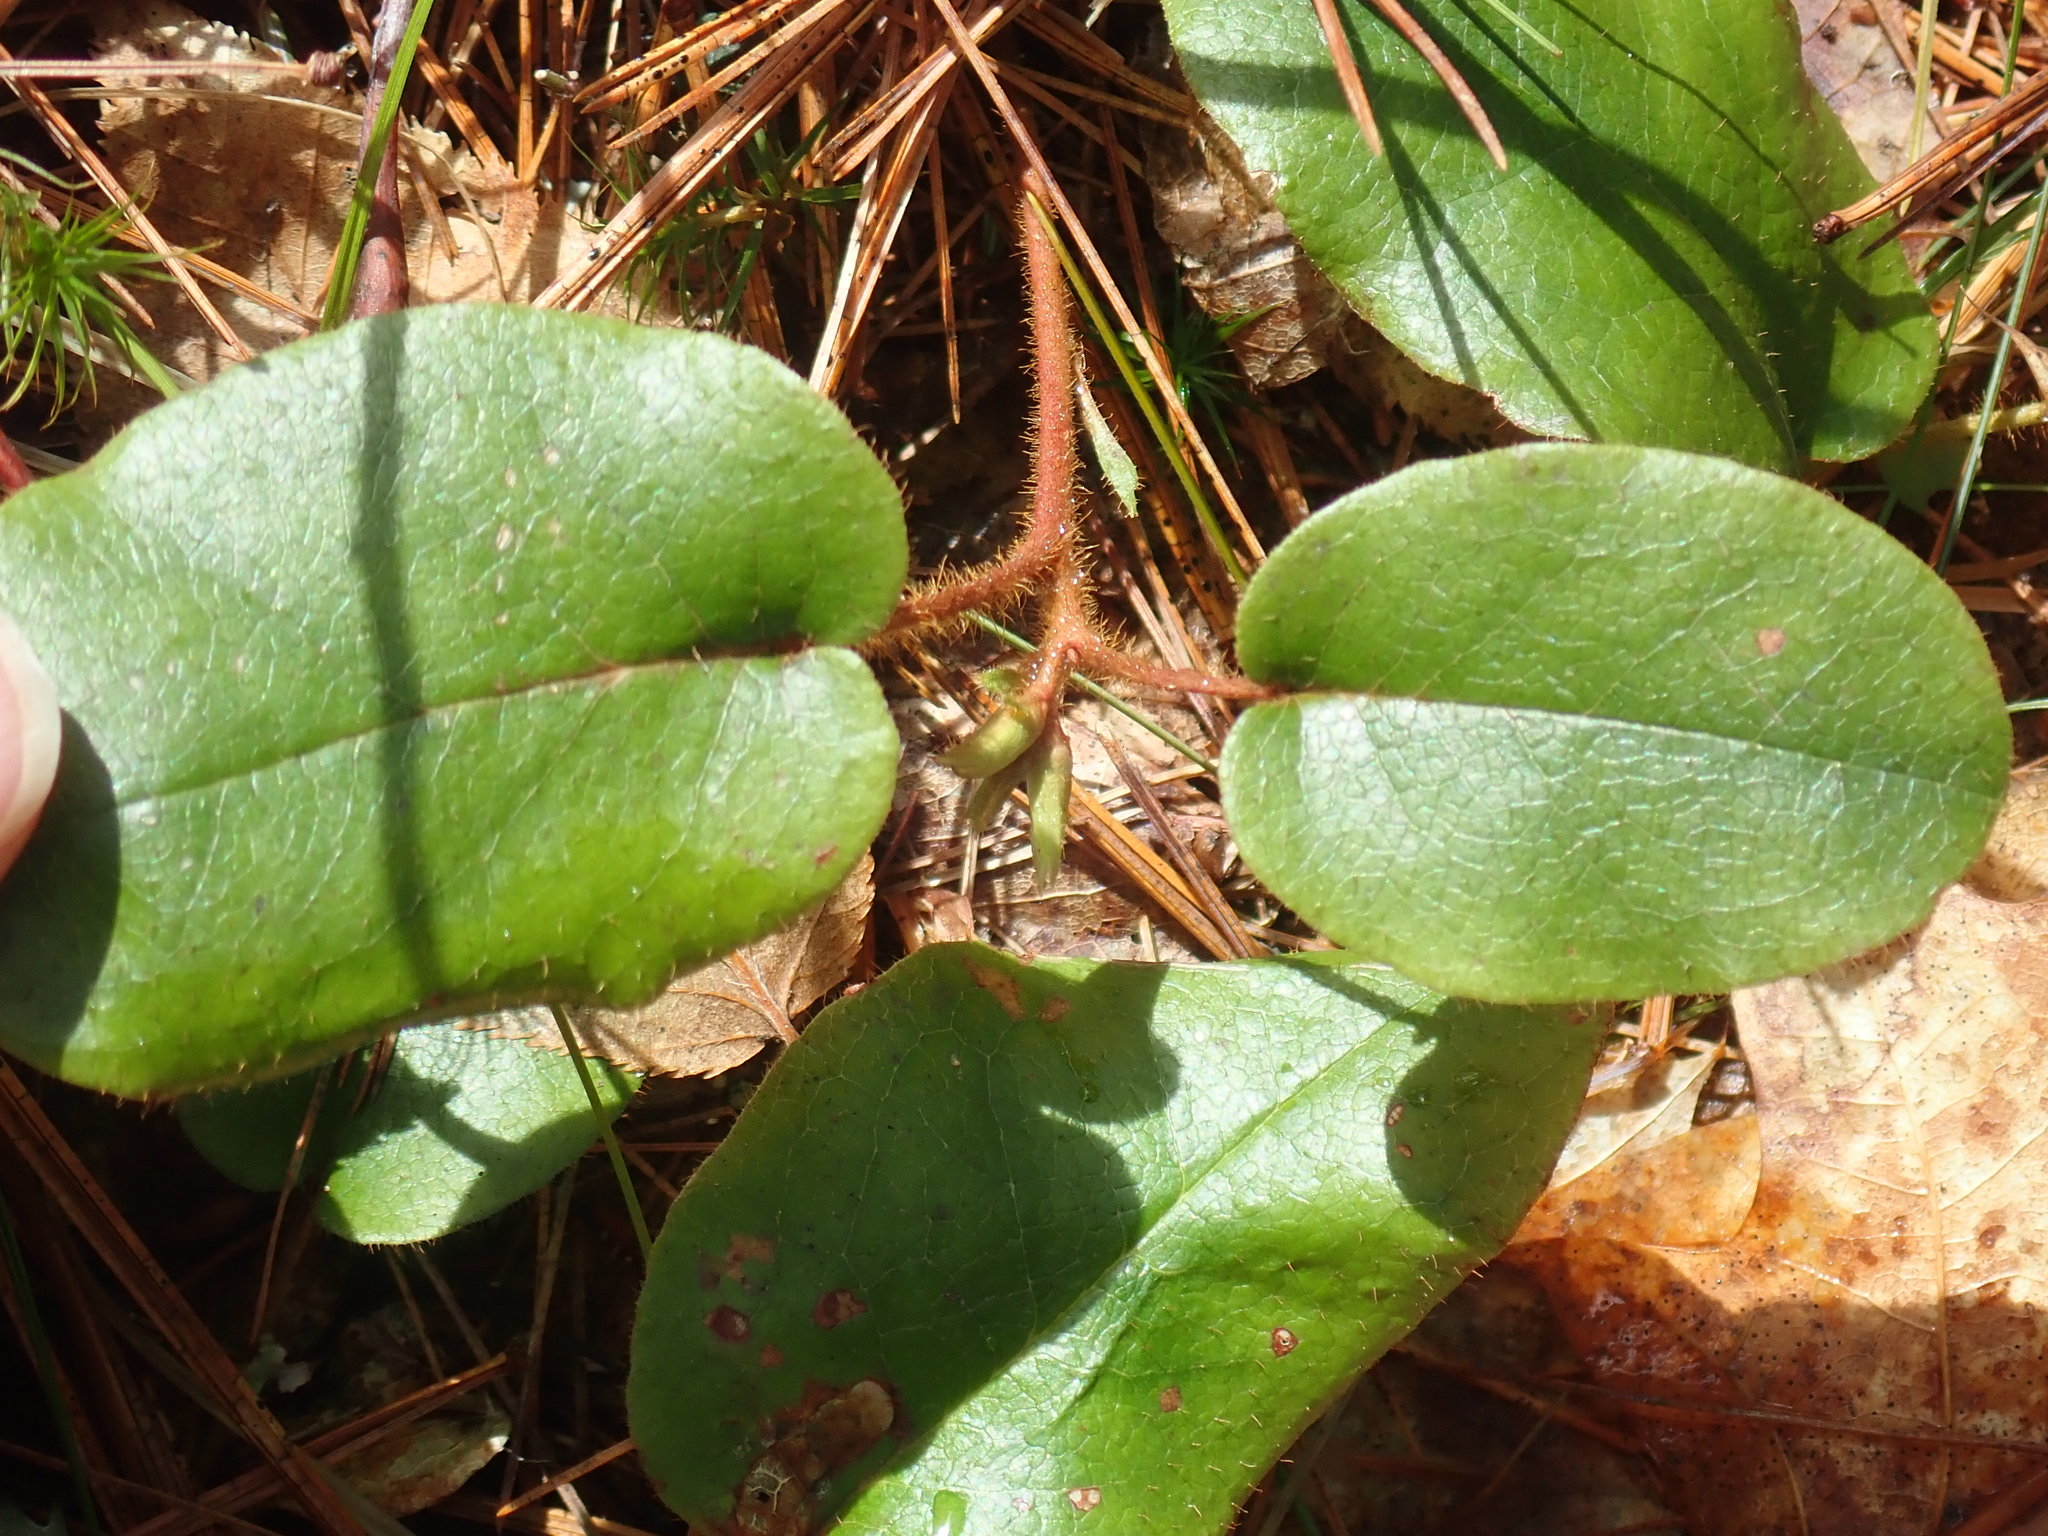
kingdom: Plantae
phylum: Tracheophyta
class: Magnoliopsida
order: Ericales
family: Ericaceae
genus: Epigaea
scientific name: Epigaea repens
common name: Gravelroot
